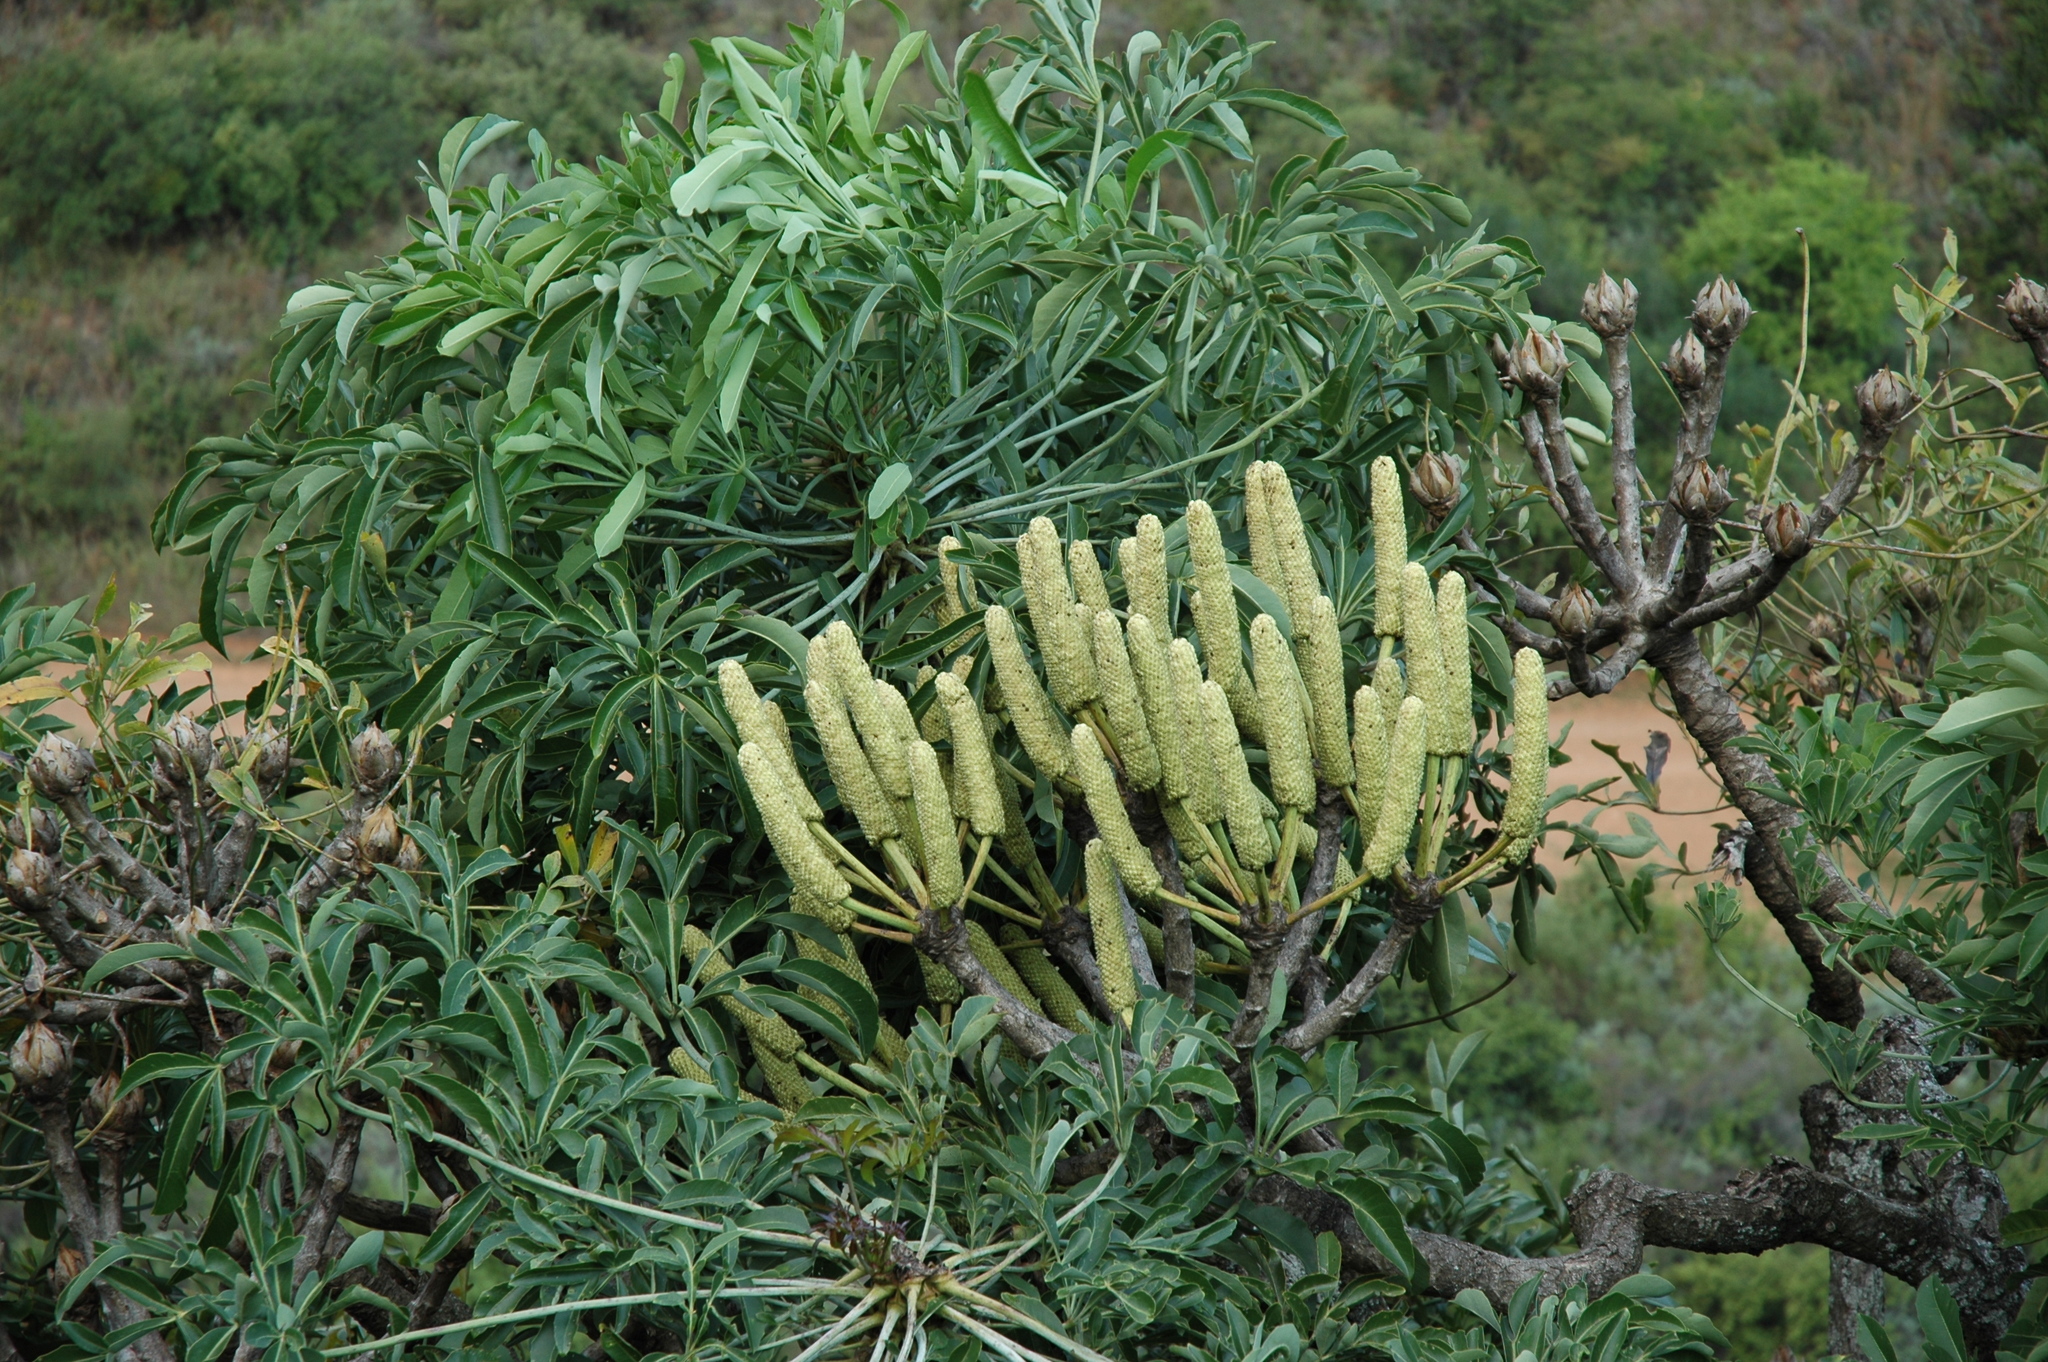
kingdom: Plantae
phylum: Tracheophyta
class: Magnoliopsida
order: Apiales
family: Araliaceae
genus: Cussonia
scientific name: Cussonia spicata
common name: Common cabbagetree
